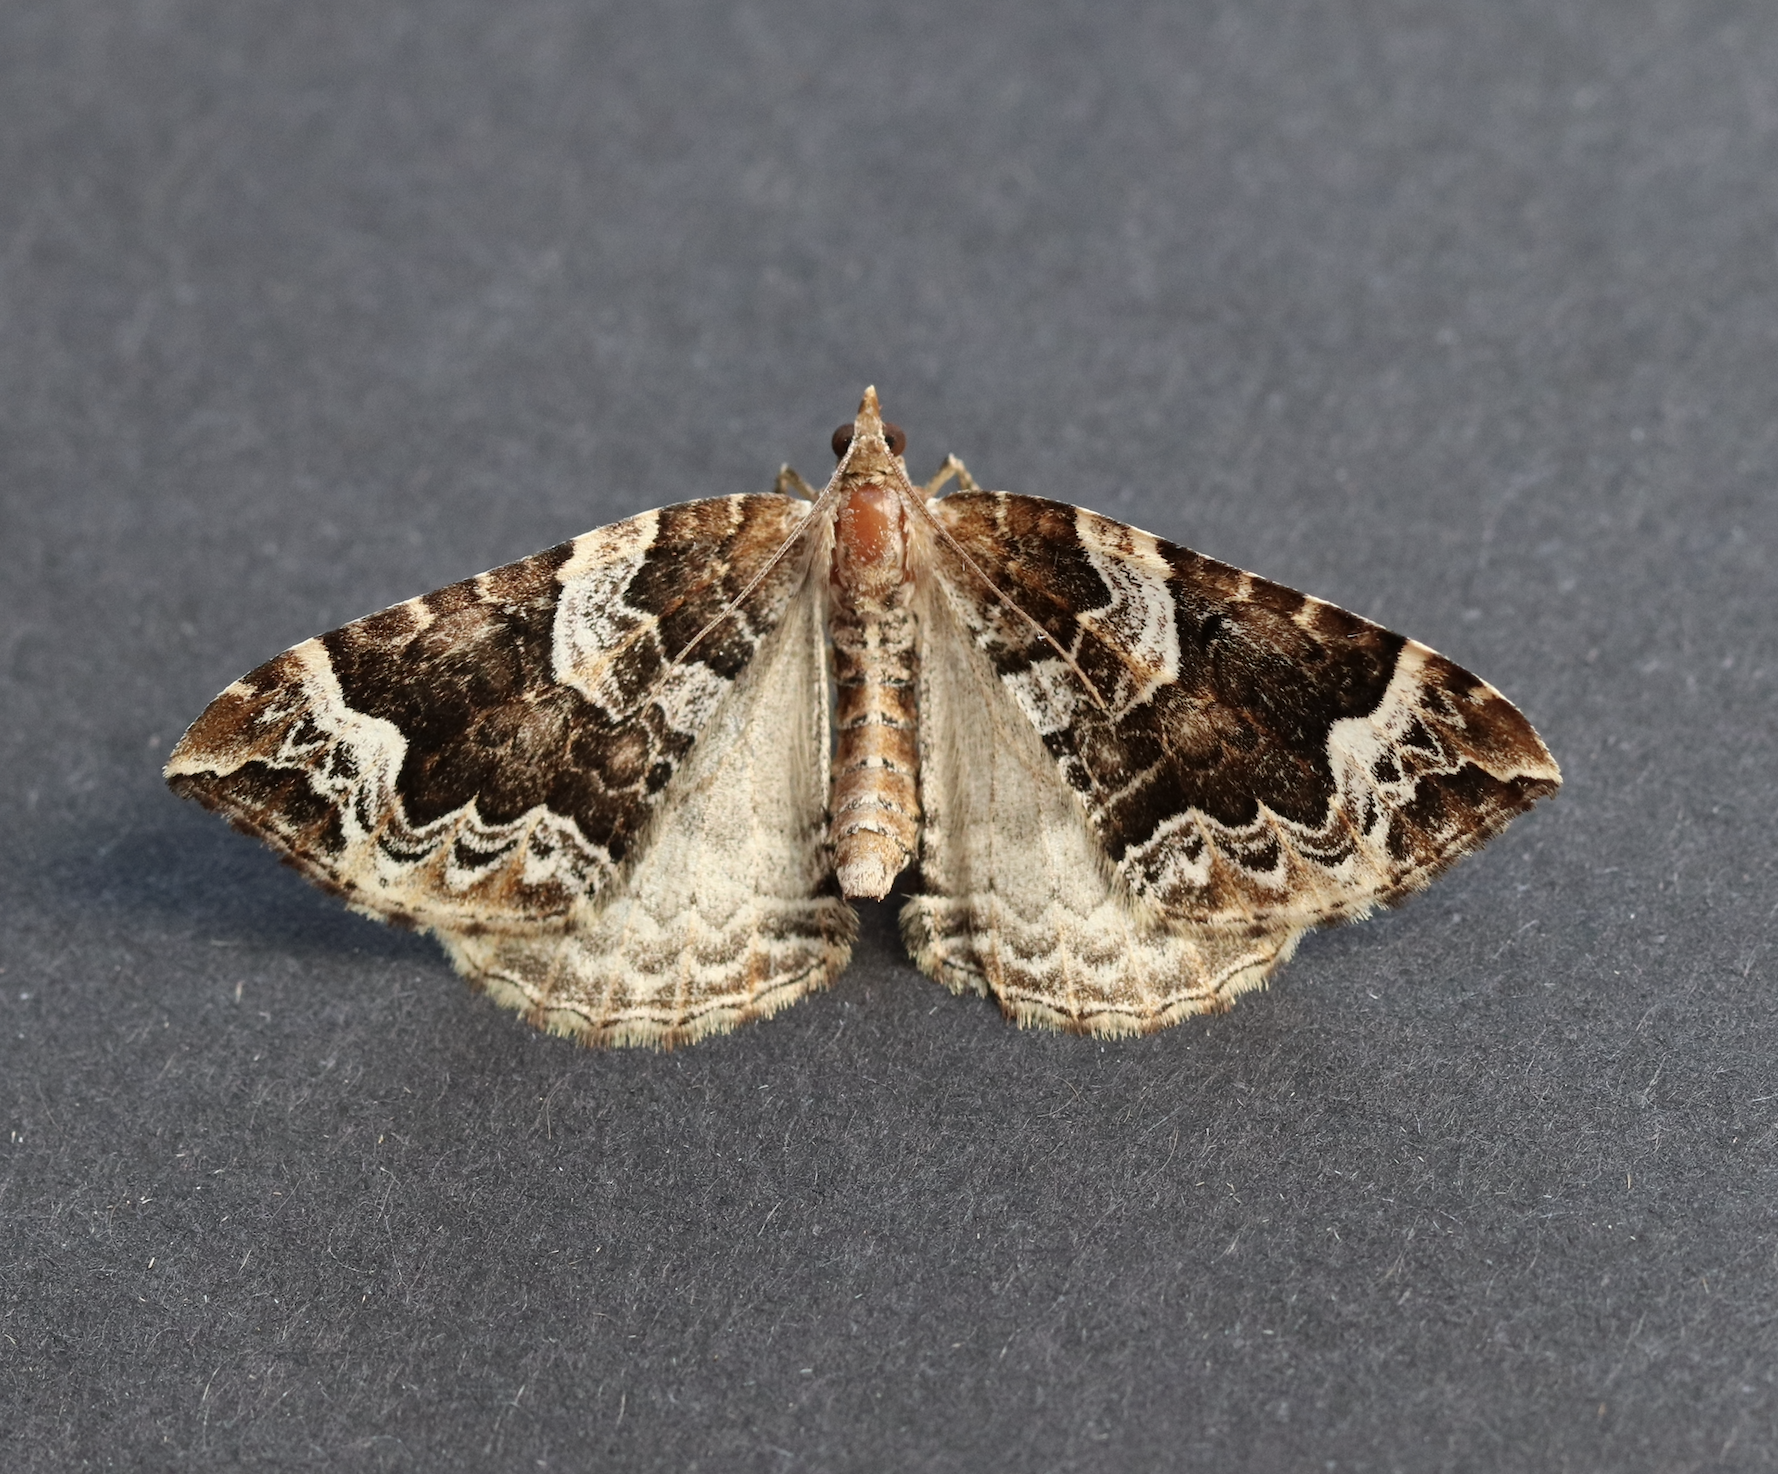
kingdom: Animalia
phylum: Arthropoda
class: Insecta
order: Lepidoptera
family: Geometridae
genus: Eulithis
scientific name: Eulithis prunata
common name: Phoenix
